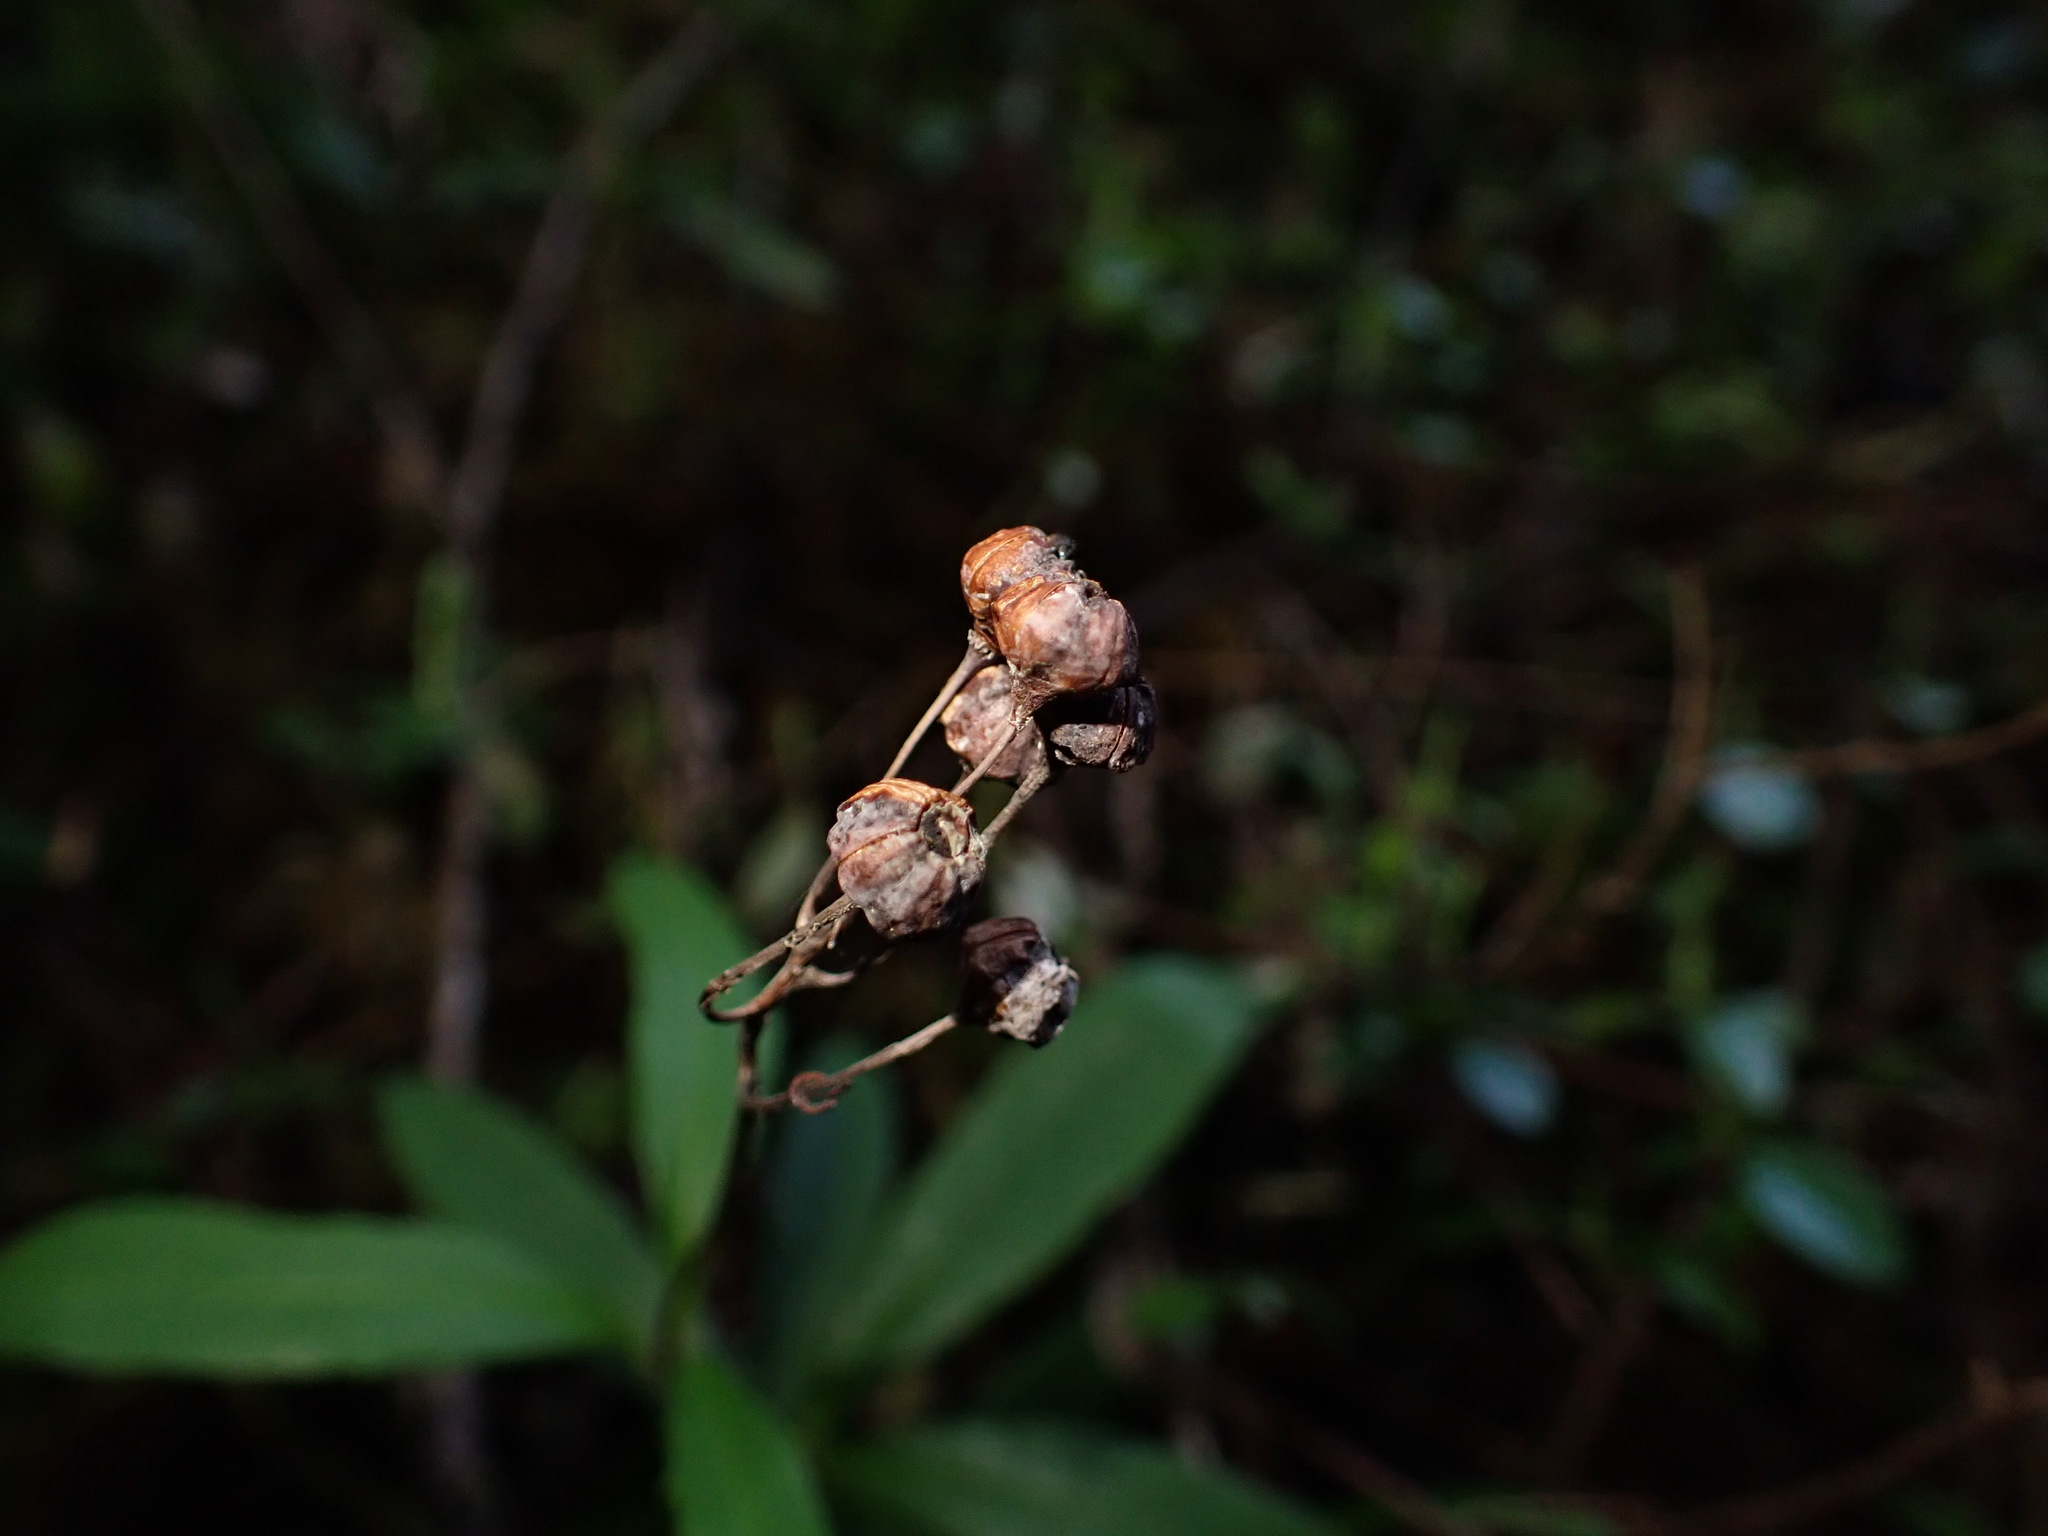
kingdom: Plantae
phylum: Tracheophyta
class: Magnoliopsida
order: Ericales
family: Ericaceae
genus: Chimaphila
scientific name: Chimaphila umbellata
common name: Pipsissewa
